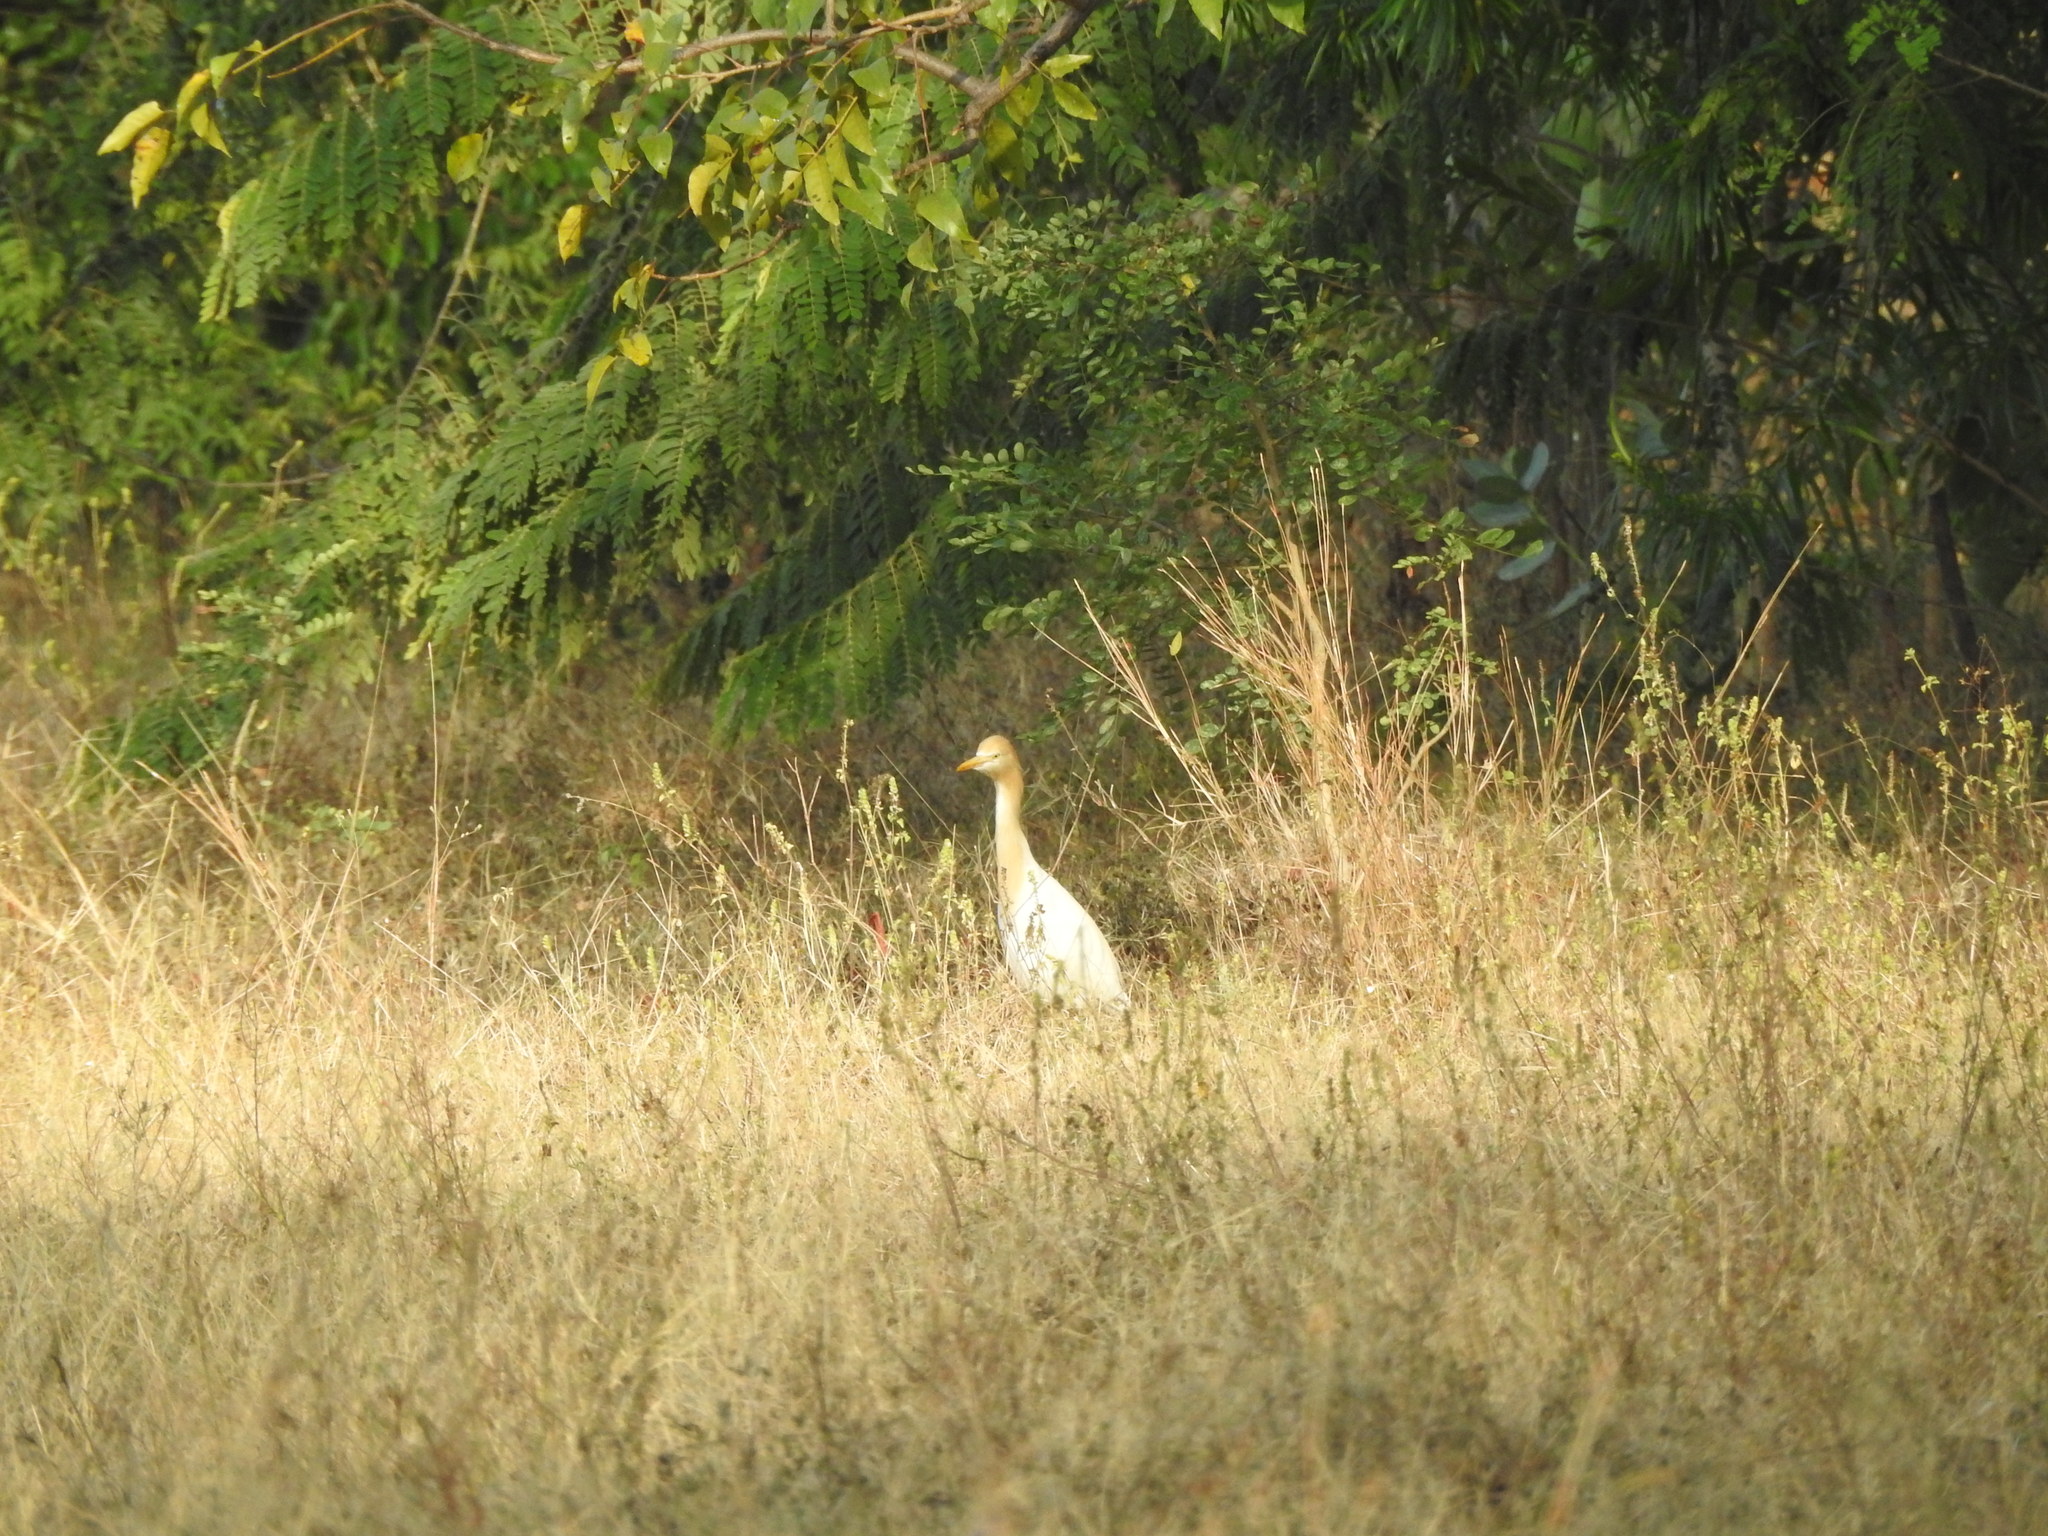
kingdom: Animalia
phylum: Chordata
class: Aves
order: Pelecaniformes
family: Ardeidae
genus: Bubulcus
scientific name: Bubulcus coromandus
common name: Eastern cattle egret
